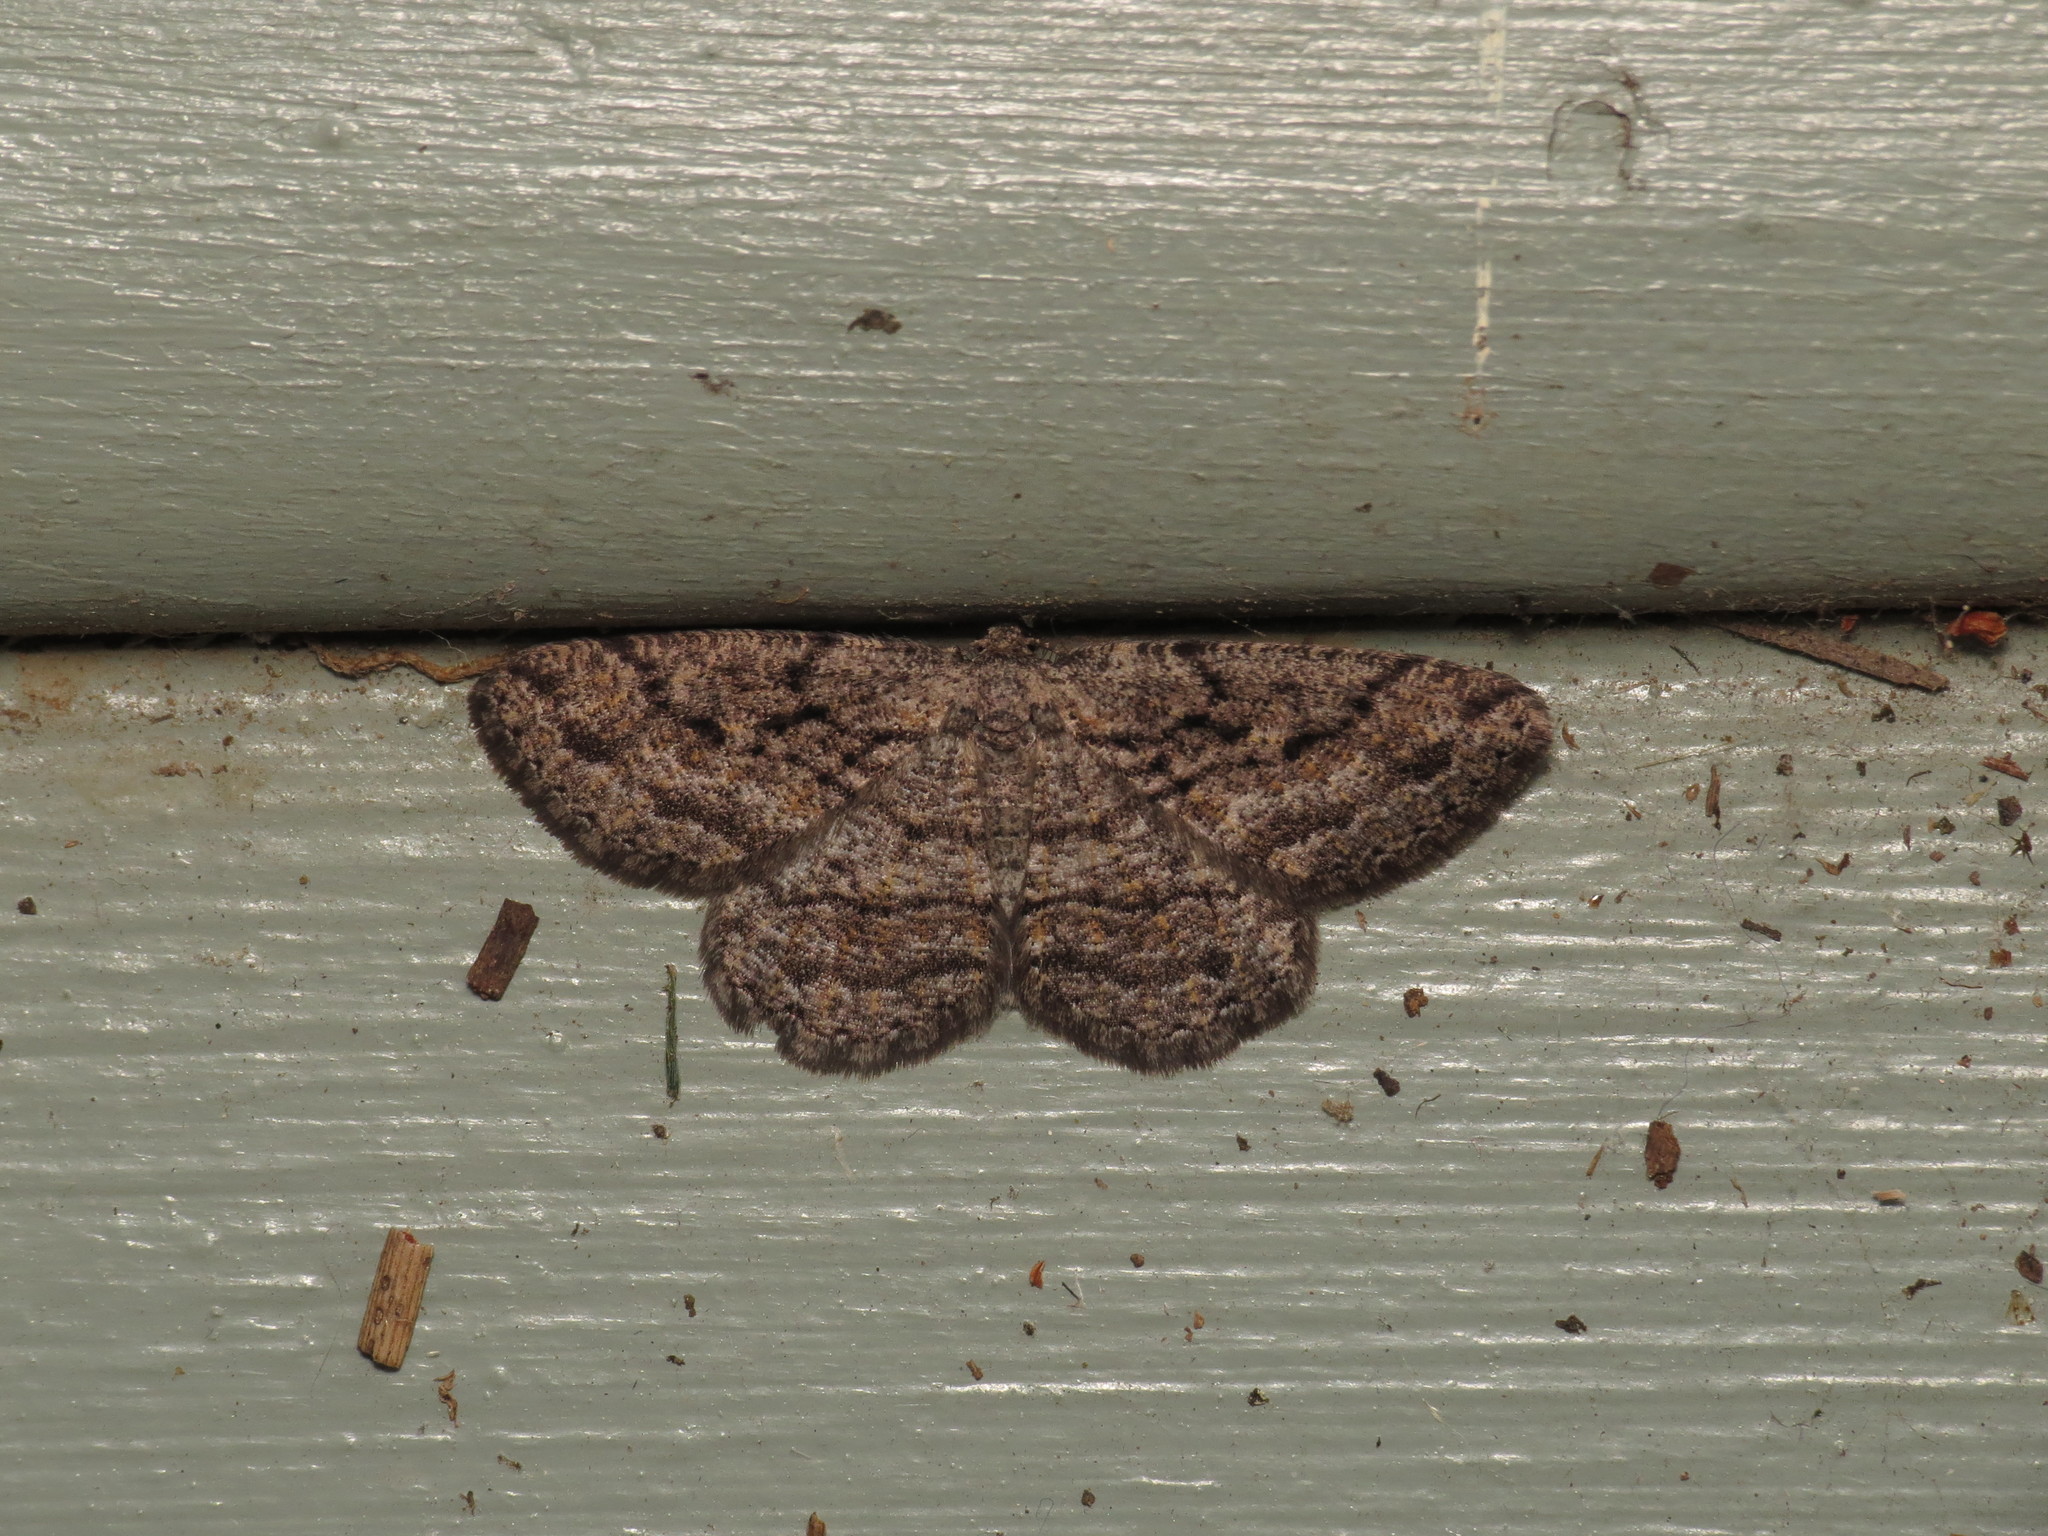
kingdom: Animalia
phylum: Arthropoda
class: Insecta
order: Lepidoptera
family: Geometridae
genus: Zermizinga
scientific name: Zermizinga sinuata
